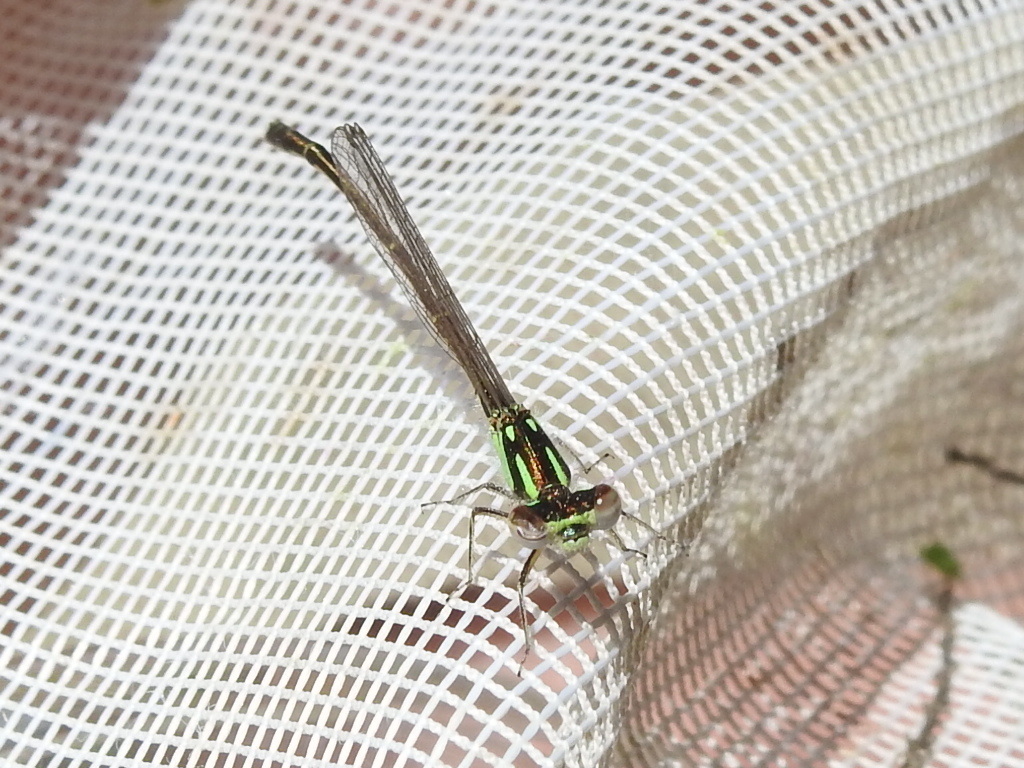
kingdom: Animalia
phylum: Arthropoda
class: Insecta
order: Odonata
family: Coenagrionidae
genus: Ischnura
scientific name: Ischnura posita
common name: Fragile forktail
